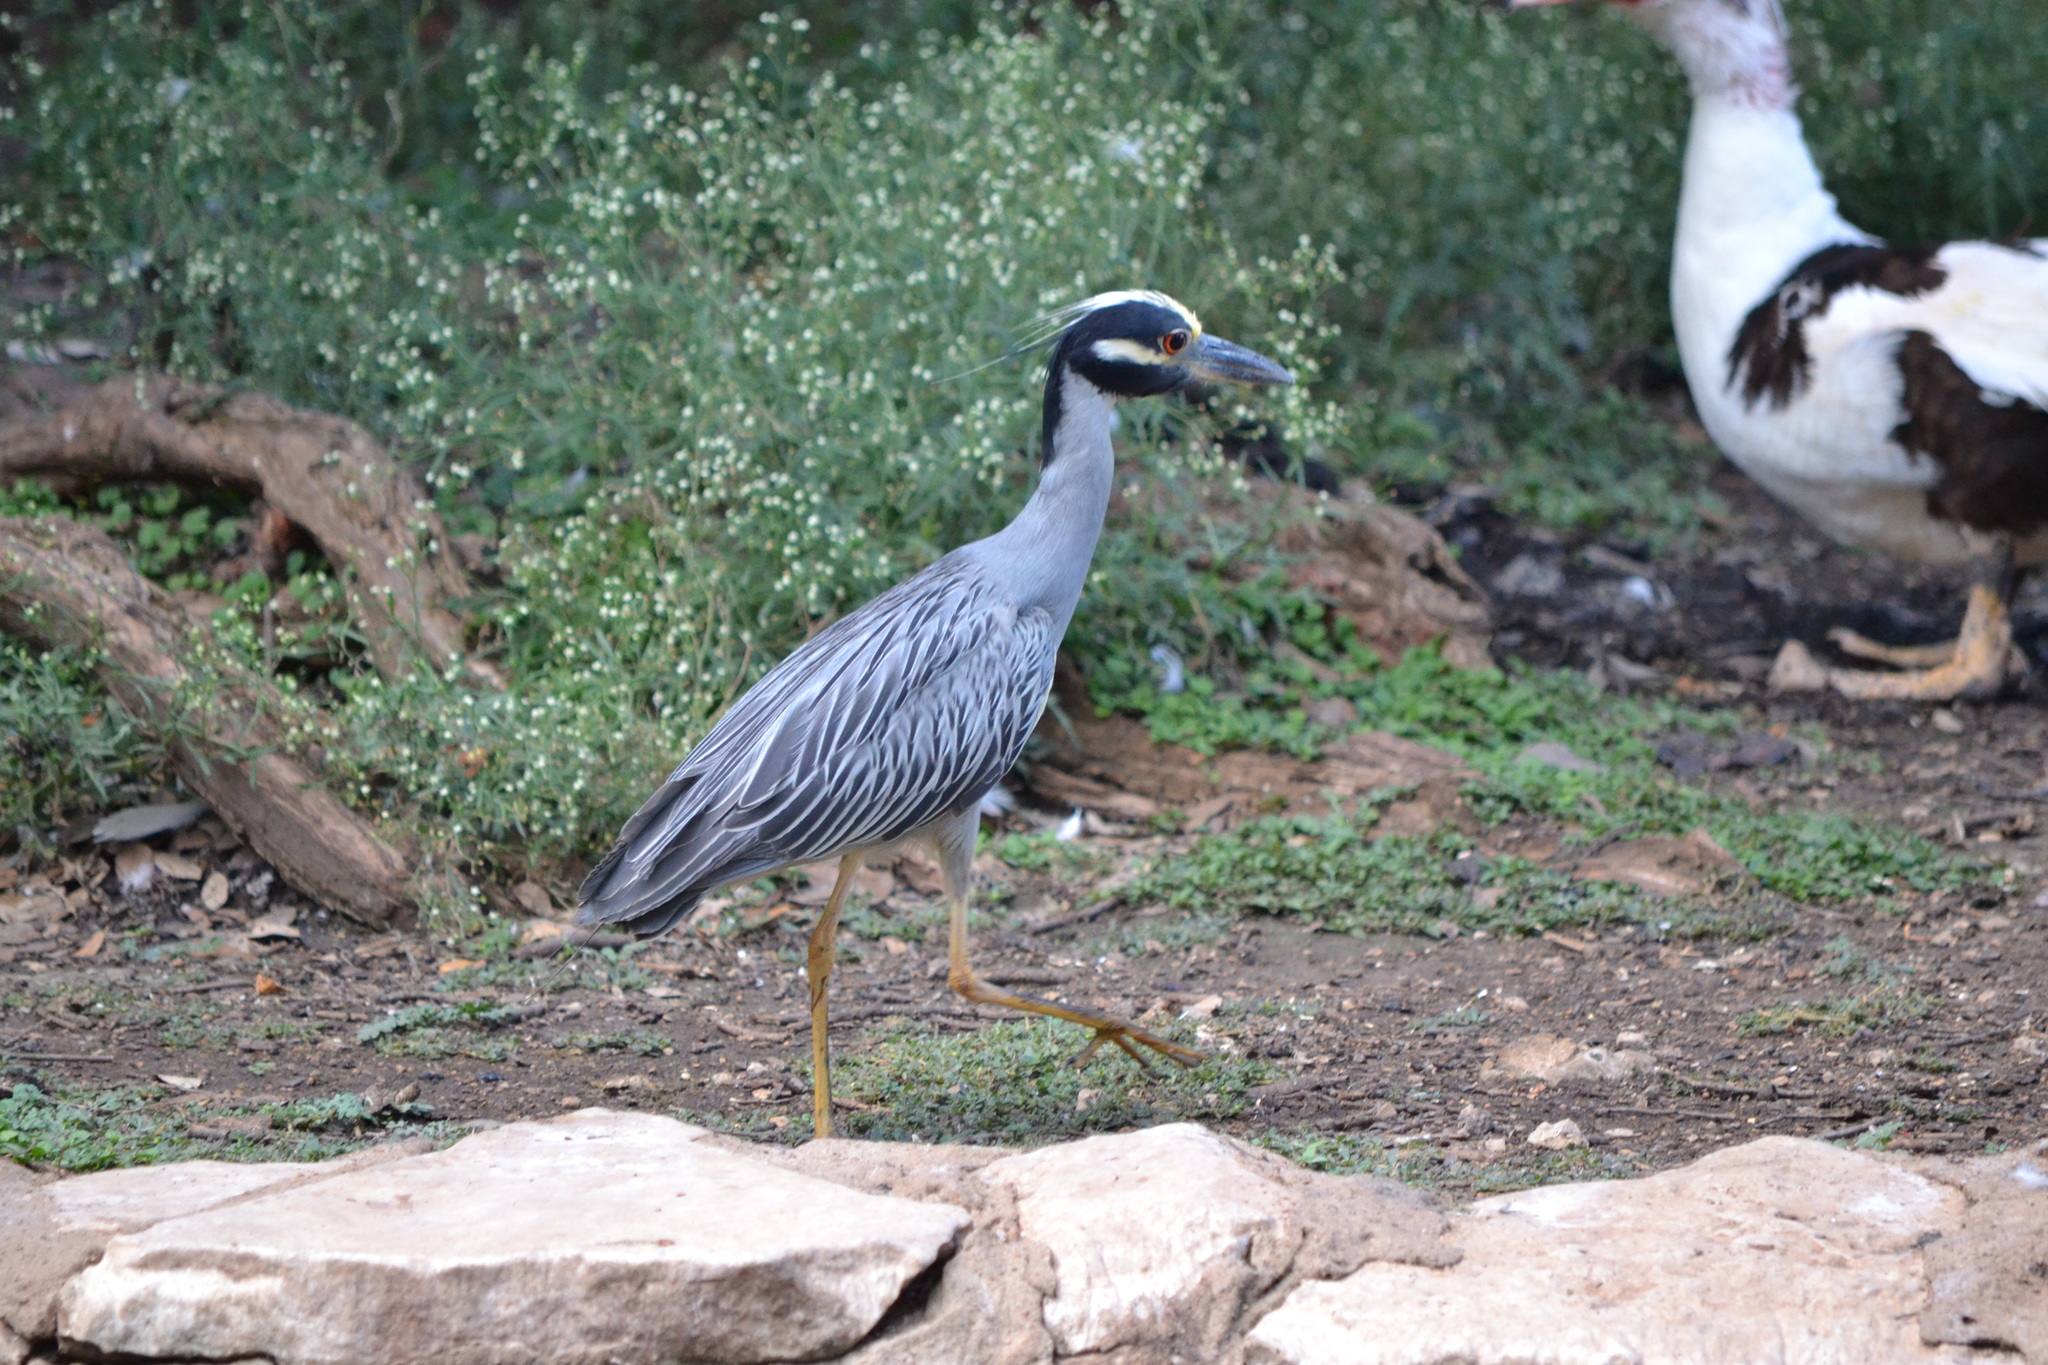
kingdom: Animalia
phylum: Chordata
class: Aves
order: Pelecaniformes
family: Ardeidae
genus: Nyctanassa
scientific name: Nyctanassa violacea
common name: Yellow-crowned night heron
